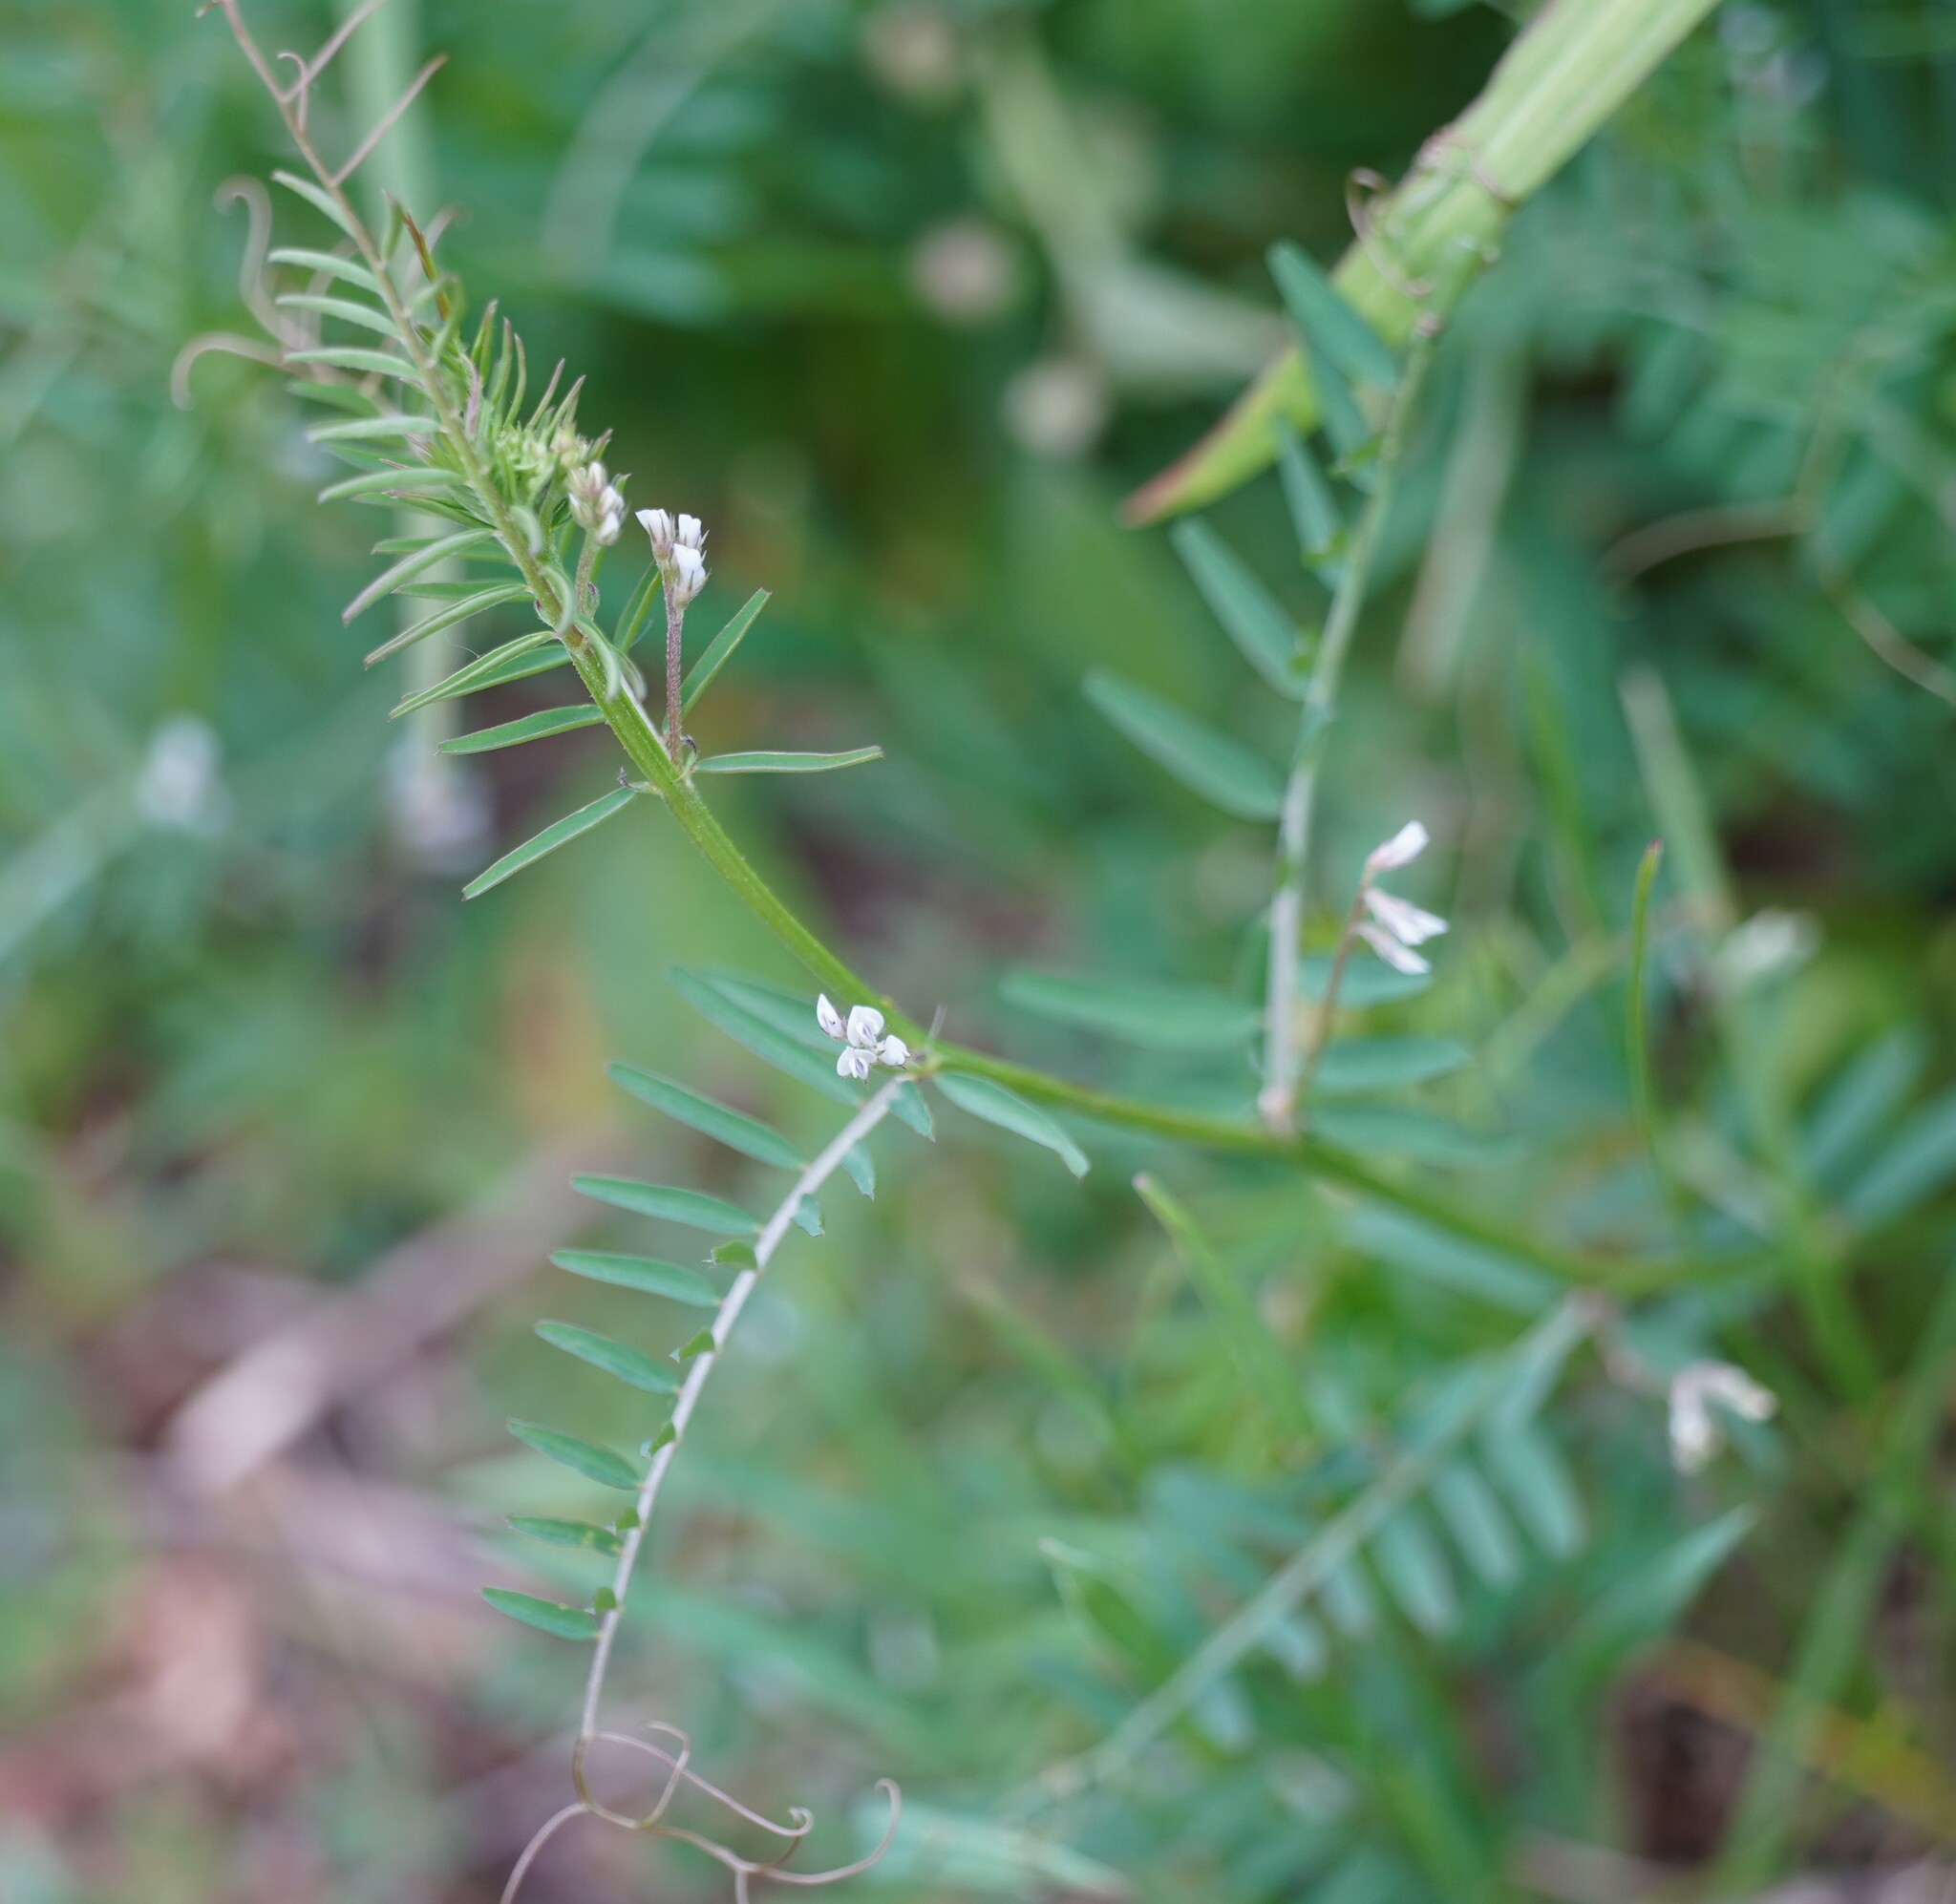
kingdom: Plantae
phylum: Tracheophyta
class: Magnoliopsida
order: Fabales
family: Fabaceae
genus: Vicia
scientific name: Vicia hirsuta
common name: Tiny vetch
